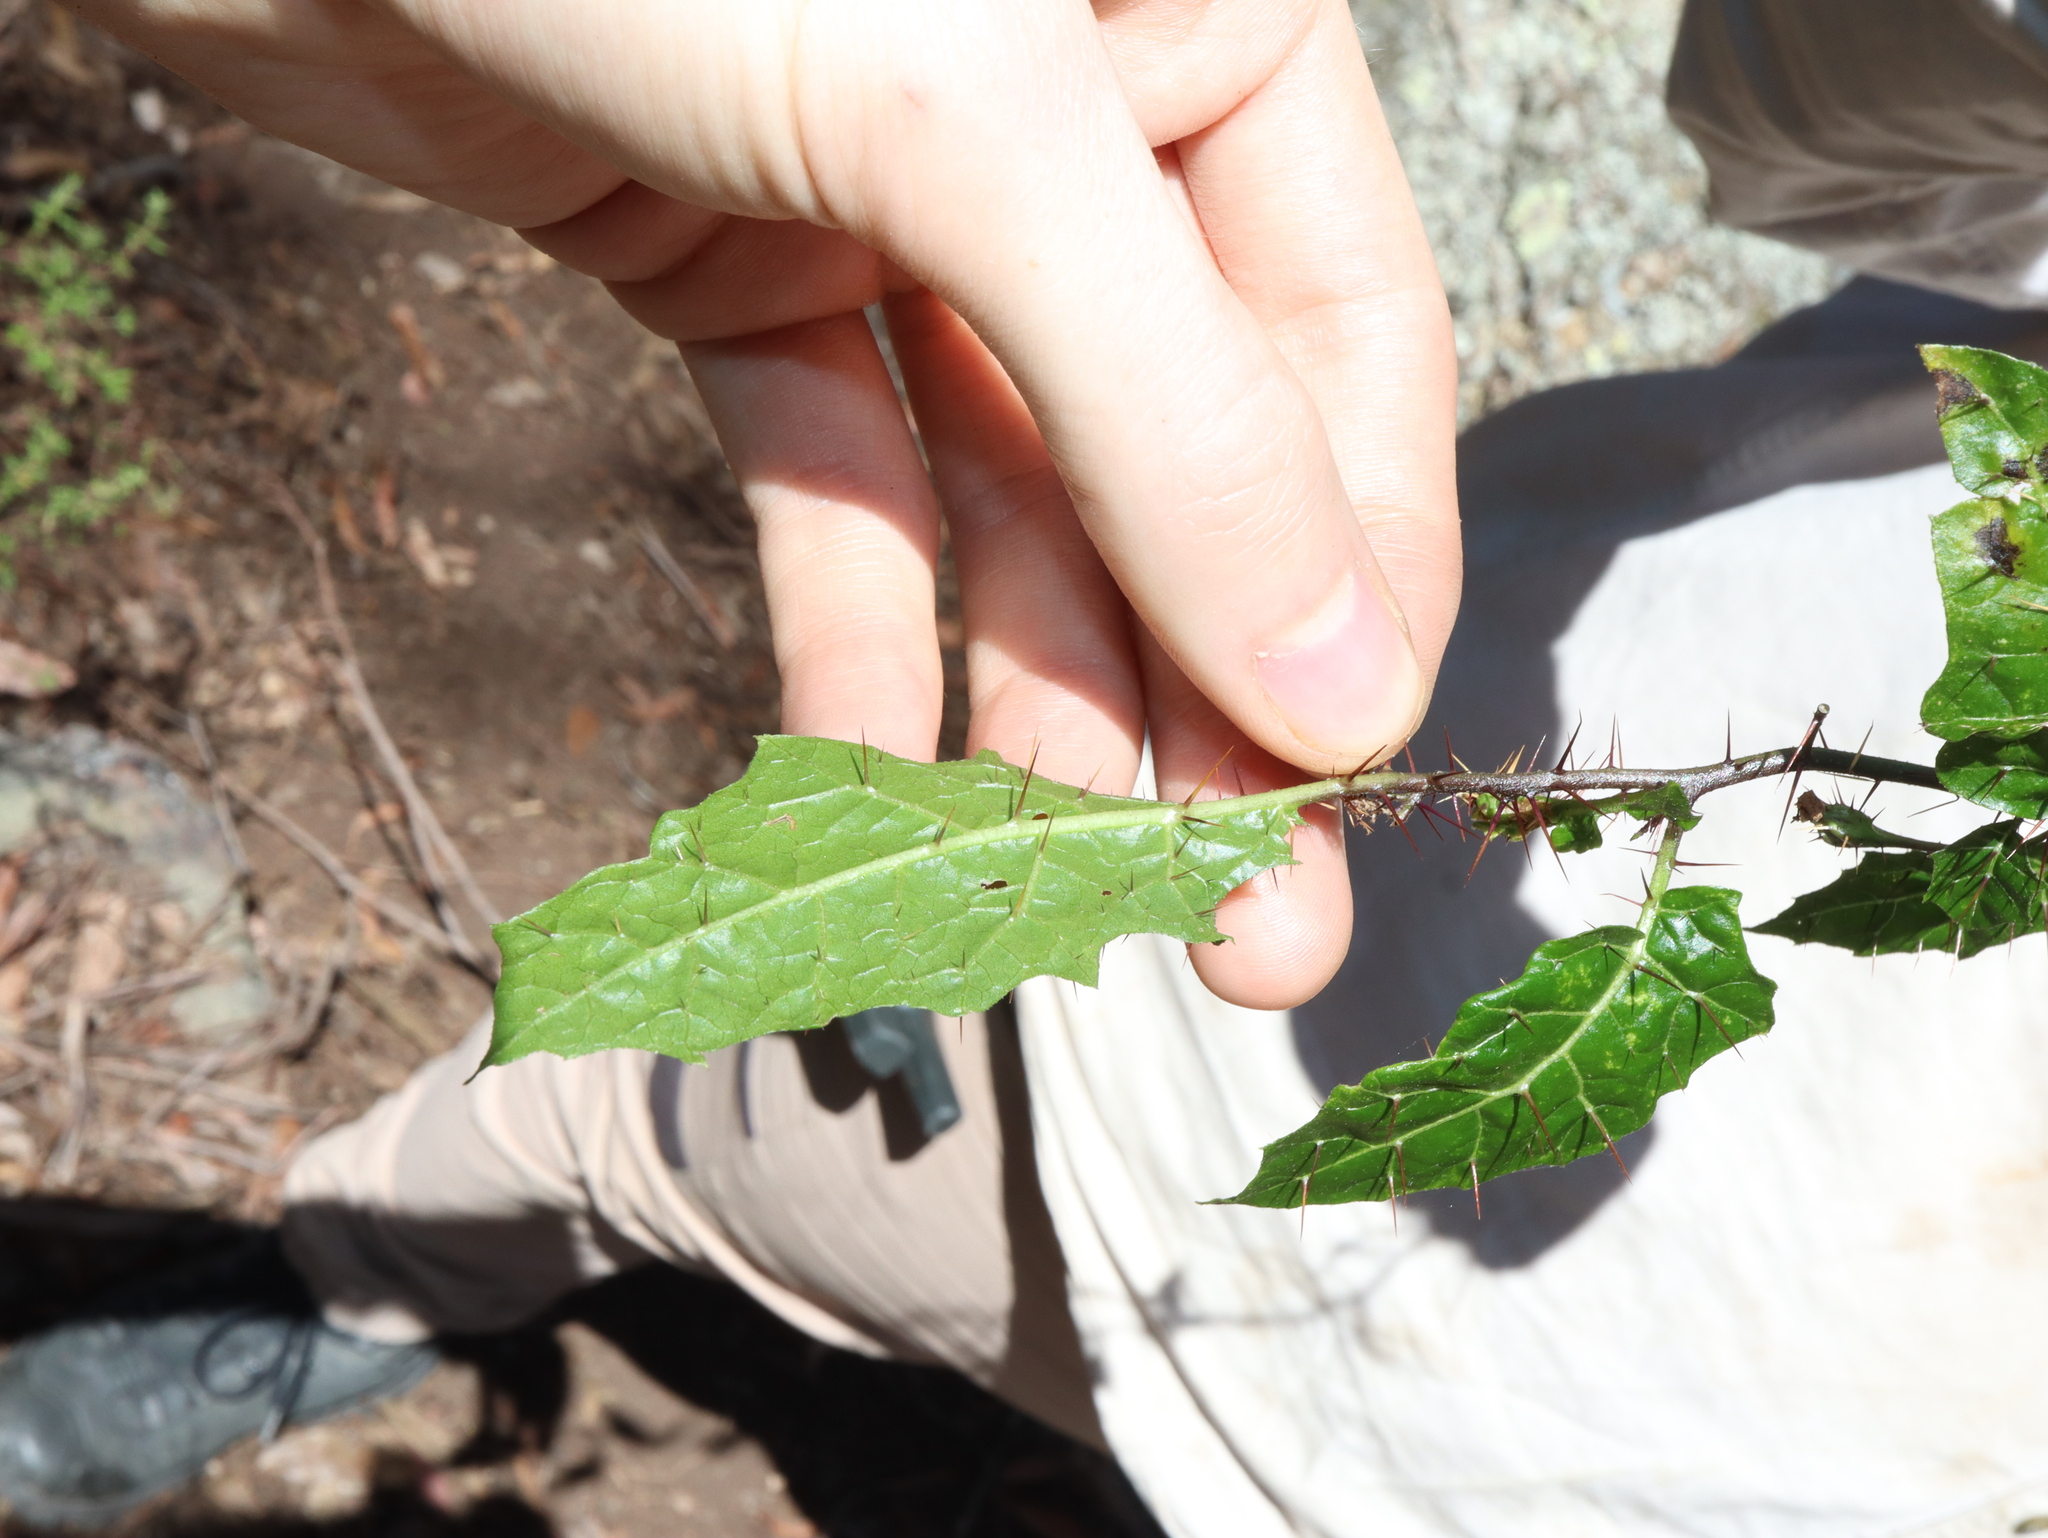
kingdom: Plantae
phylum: Tracheophyta
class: Magnoliopsida
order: Solanales
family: Solanaceae
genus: Solanum
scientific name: Solanum prinophyllum
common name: Forest nightshade
